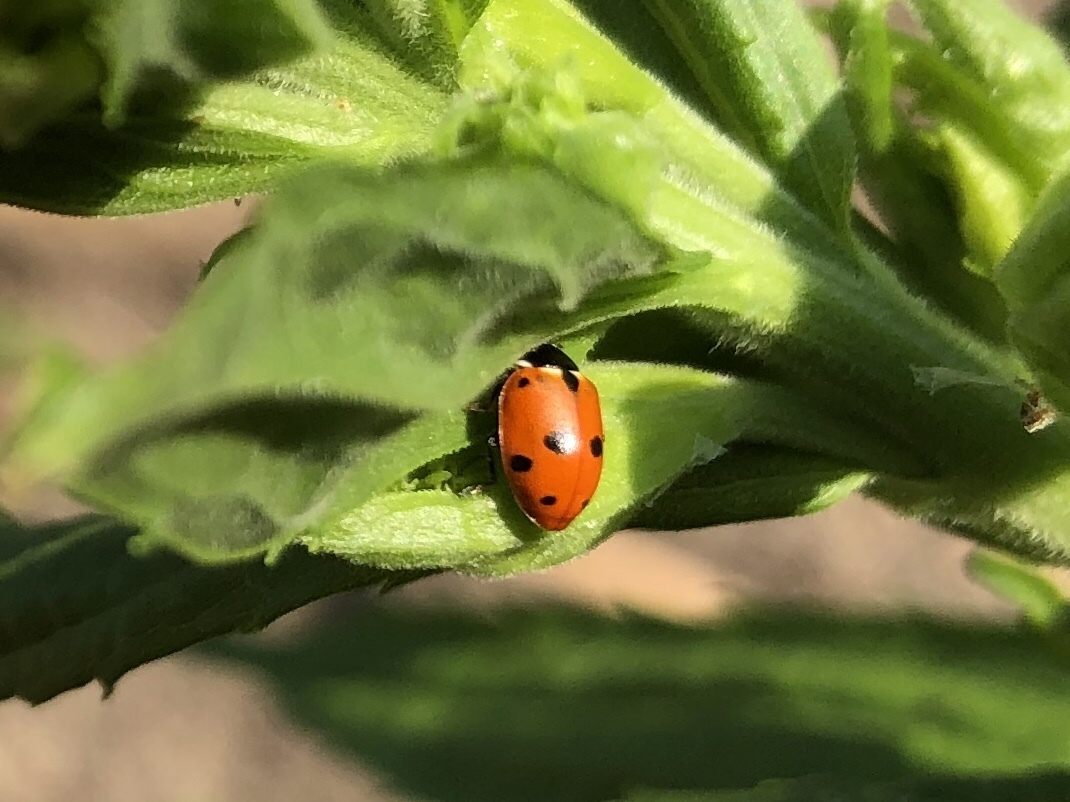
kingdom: Animalia
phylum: Arthropoda
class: Insecta
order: Coleoptera
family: Coccinellidae
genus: Hippodamia
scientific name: Hippodamia variegata
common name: Ladybird beetle
